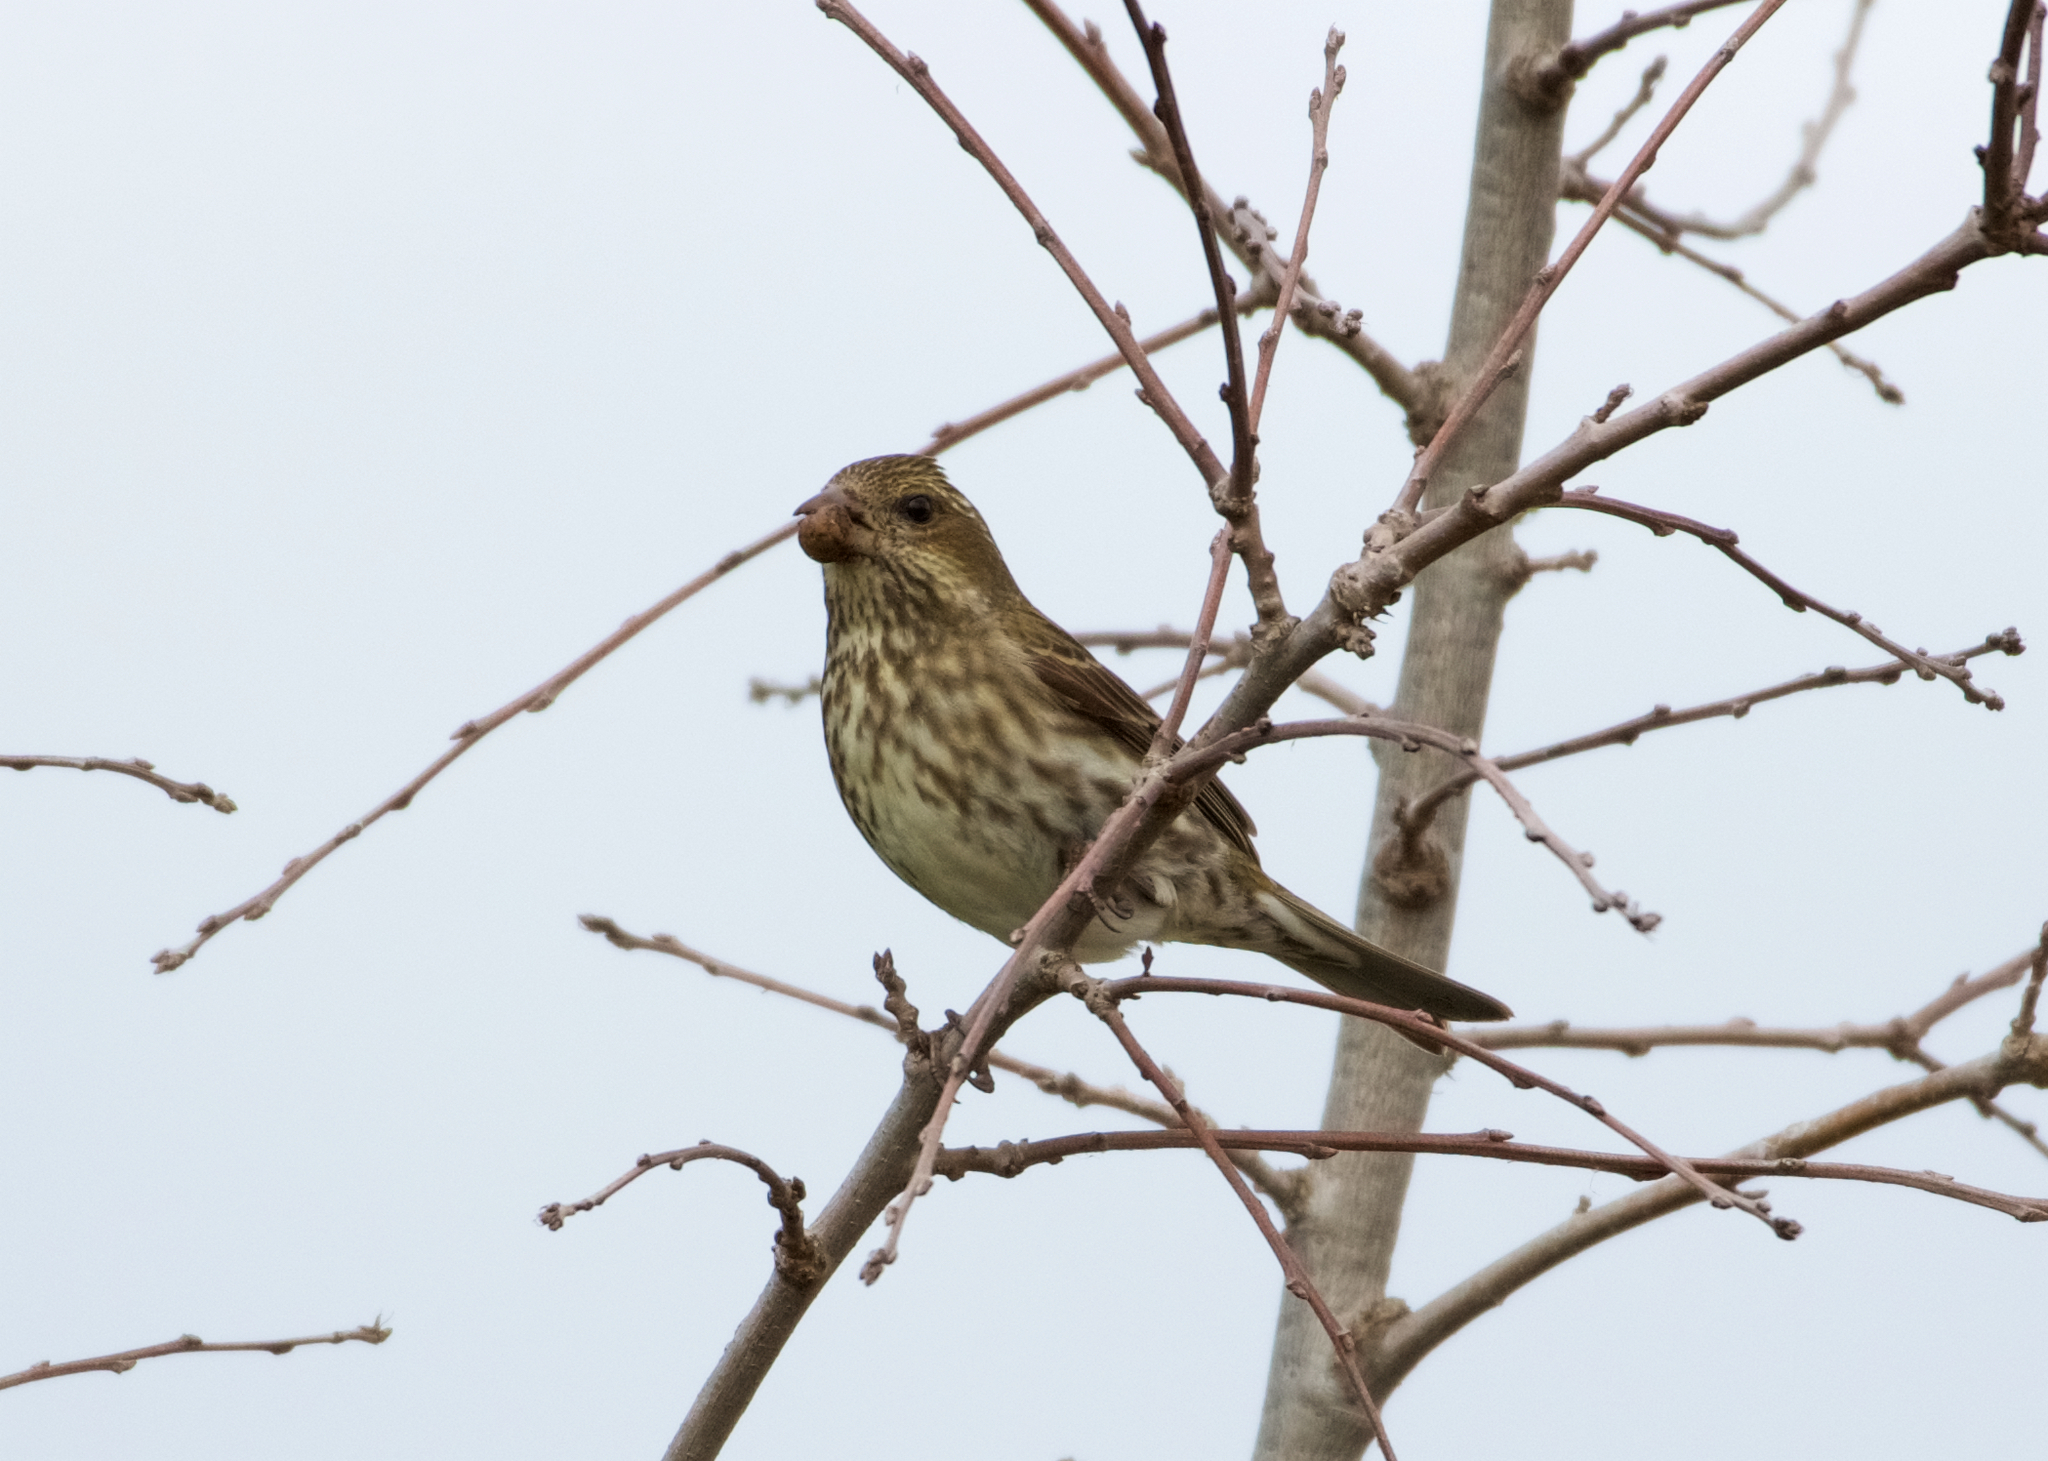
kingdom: Animalia
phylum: Chordata
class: Aves
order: Passeriformes
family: Fringillidae
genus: Haemorhous
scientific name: Haemorhous mexicanus
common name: House finch
